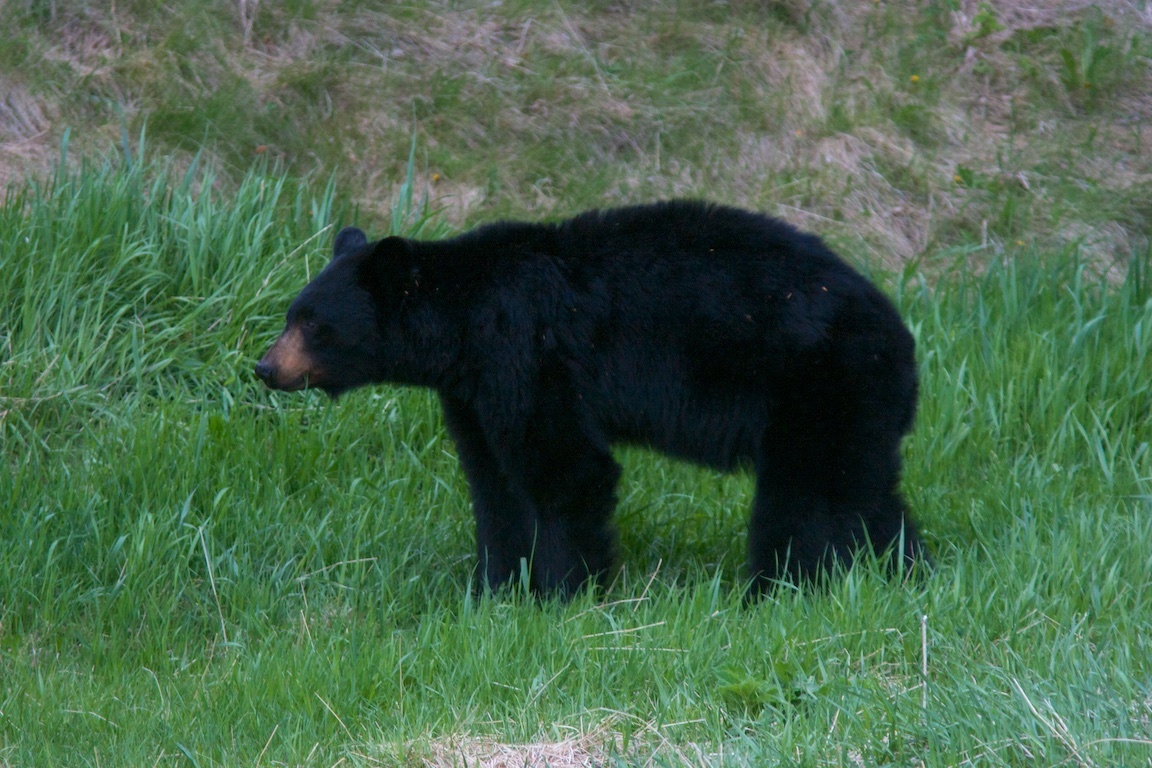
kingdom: Animalia
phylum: Chordata
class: Mammalia
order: Carnivora
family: Ursidae
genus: Ursus
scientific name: Ursus americanus
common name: American black bear
